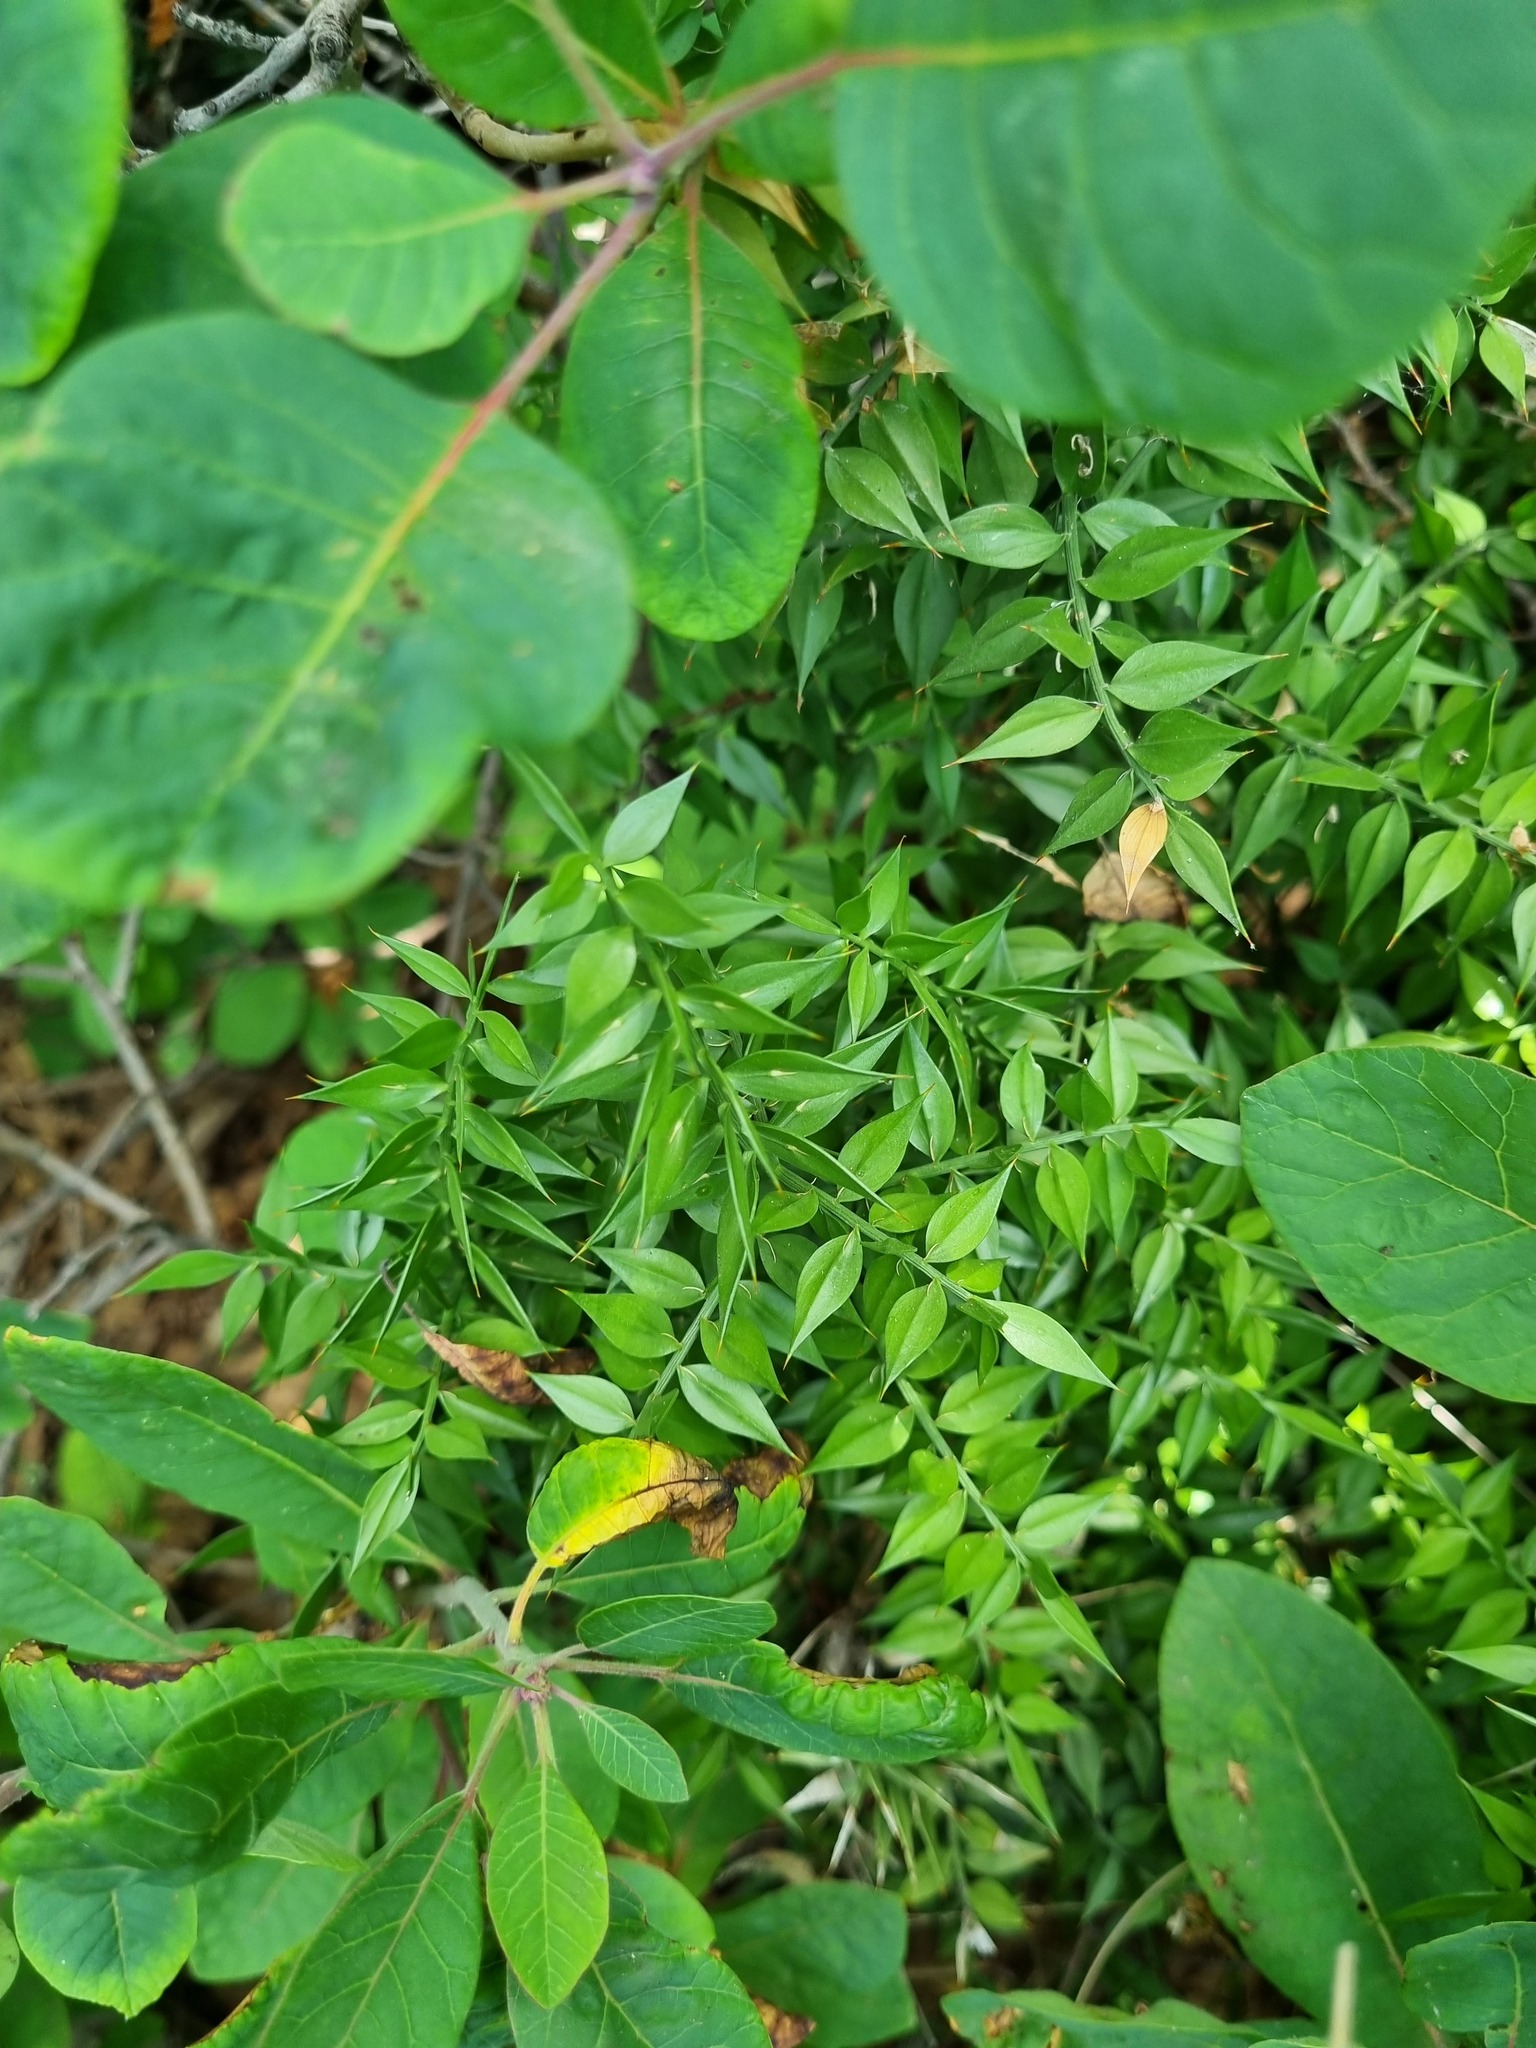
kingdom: Plantae
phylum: Tracheophyta
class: Liliopsida
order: Asparagales
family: Asparagaceae
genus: Ruscus
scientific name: Ruscus aculeatus
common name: Butcher's-broom
